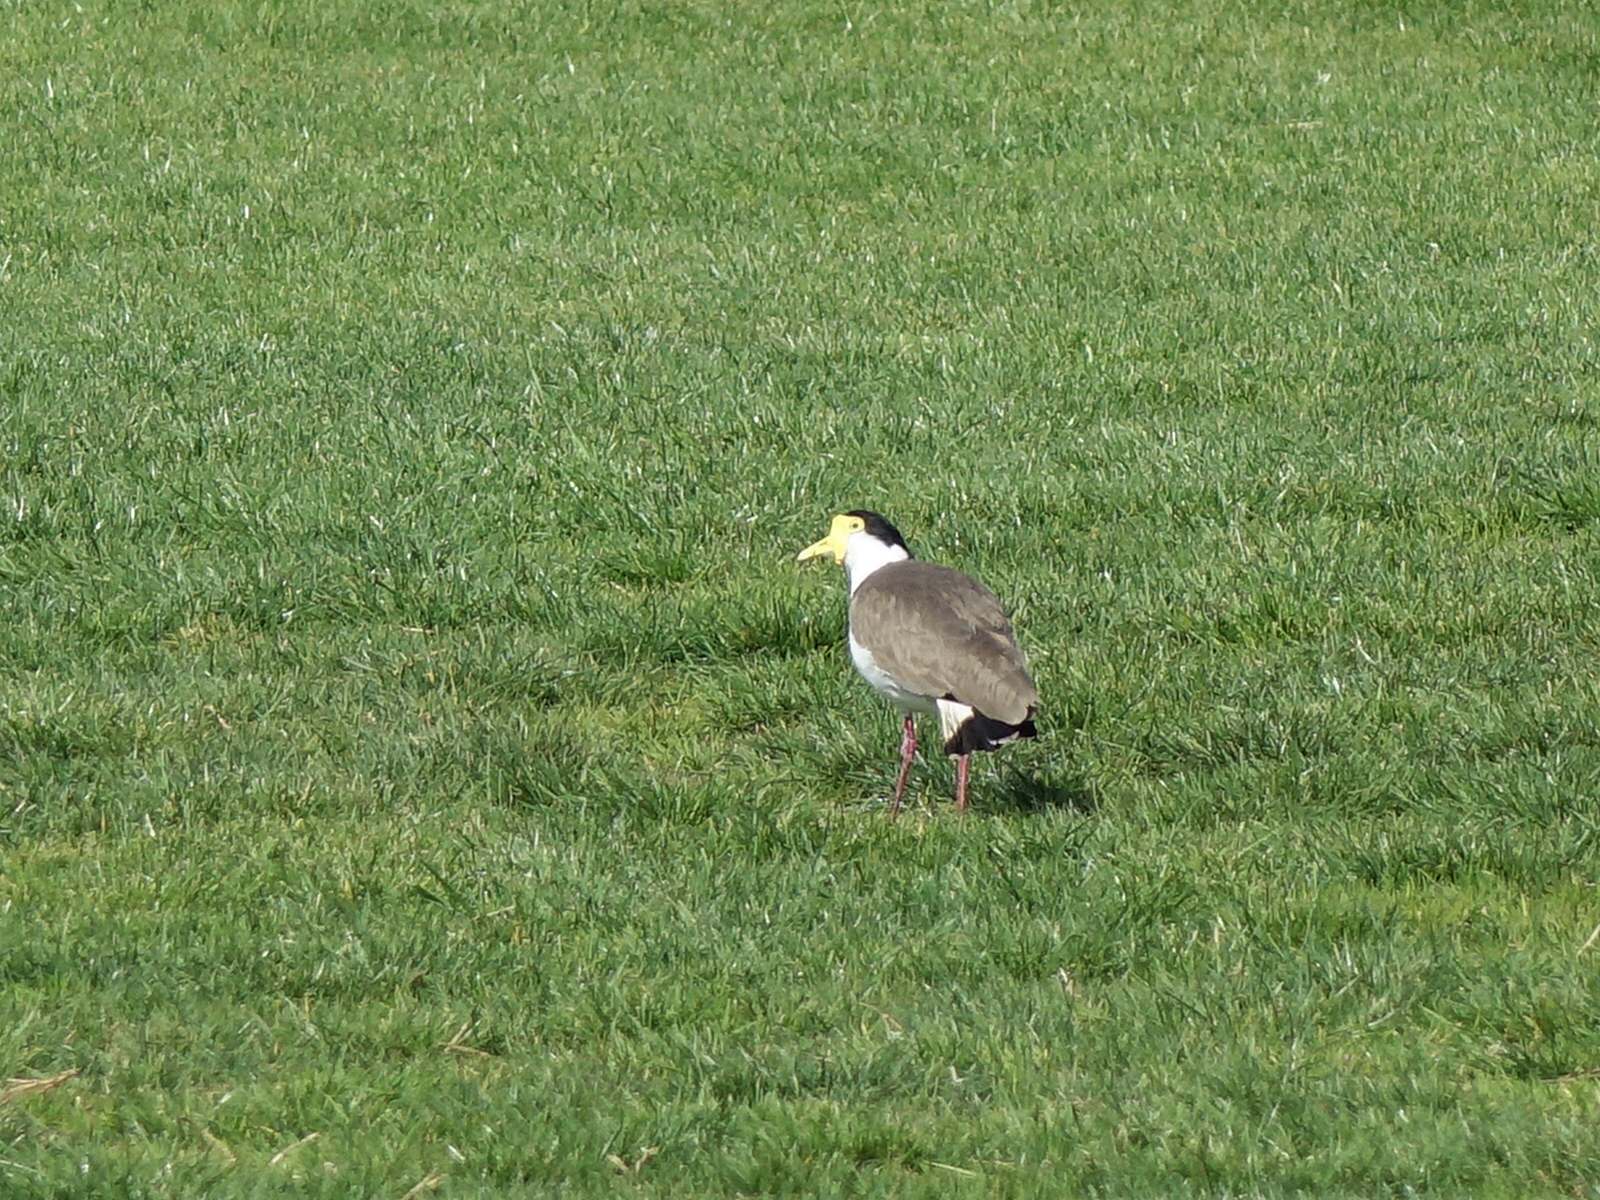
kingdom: Animalia
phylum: Chordata
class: Aves
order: Charadriiformes
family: Charadriidae
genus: Vanellus
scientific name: Vanellus miles
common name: Masked lapwing
